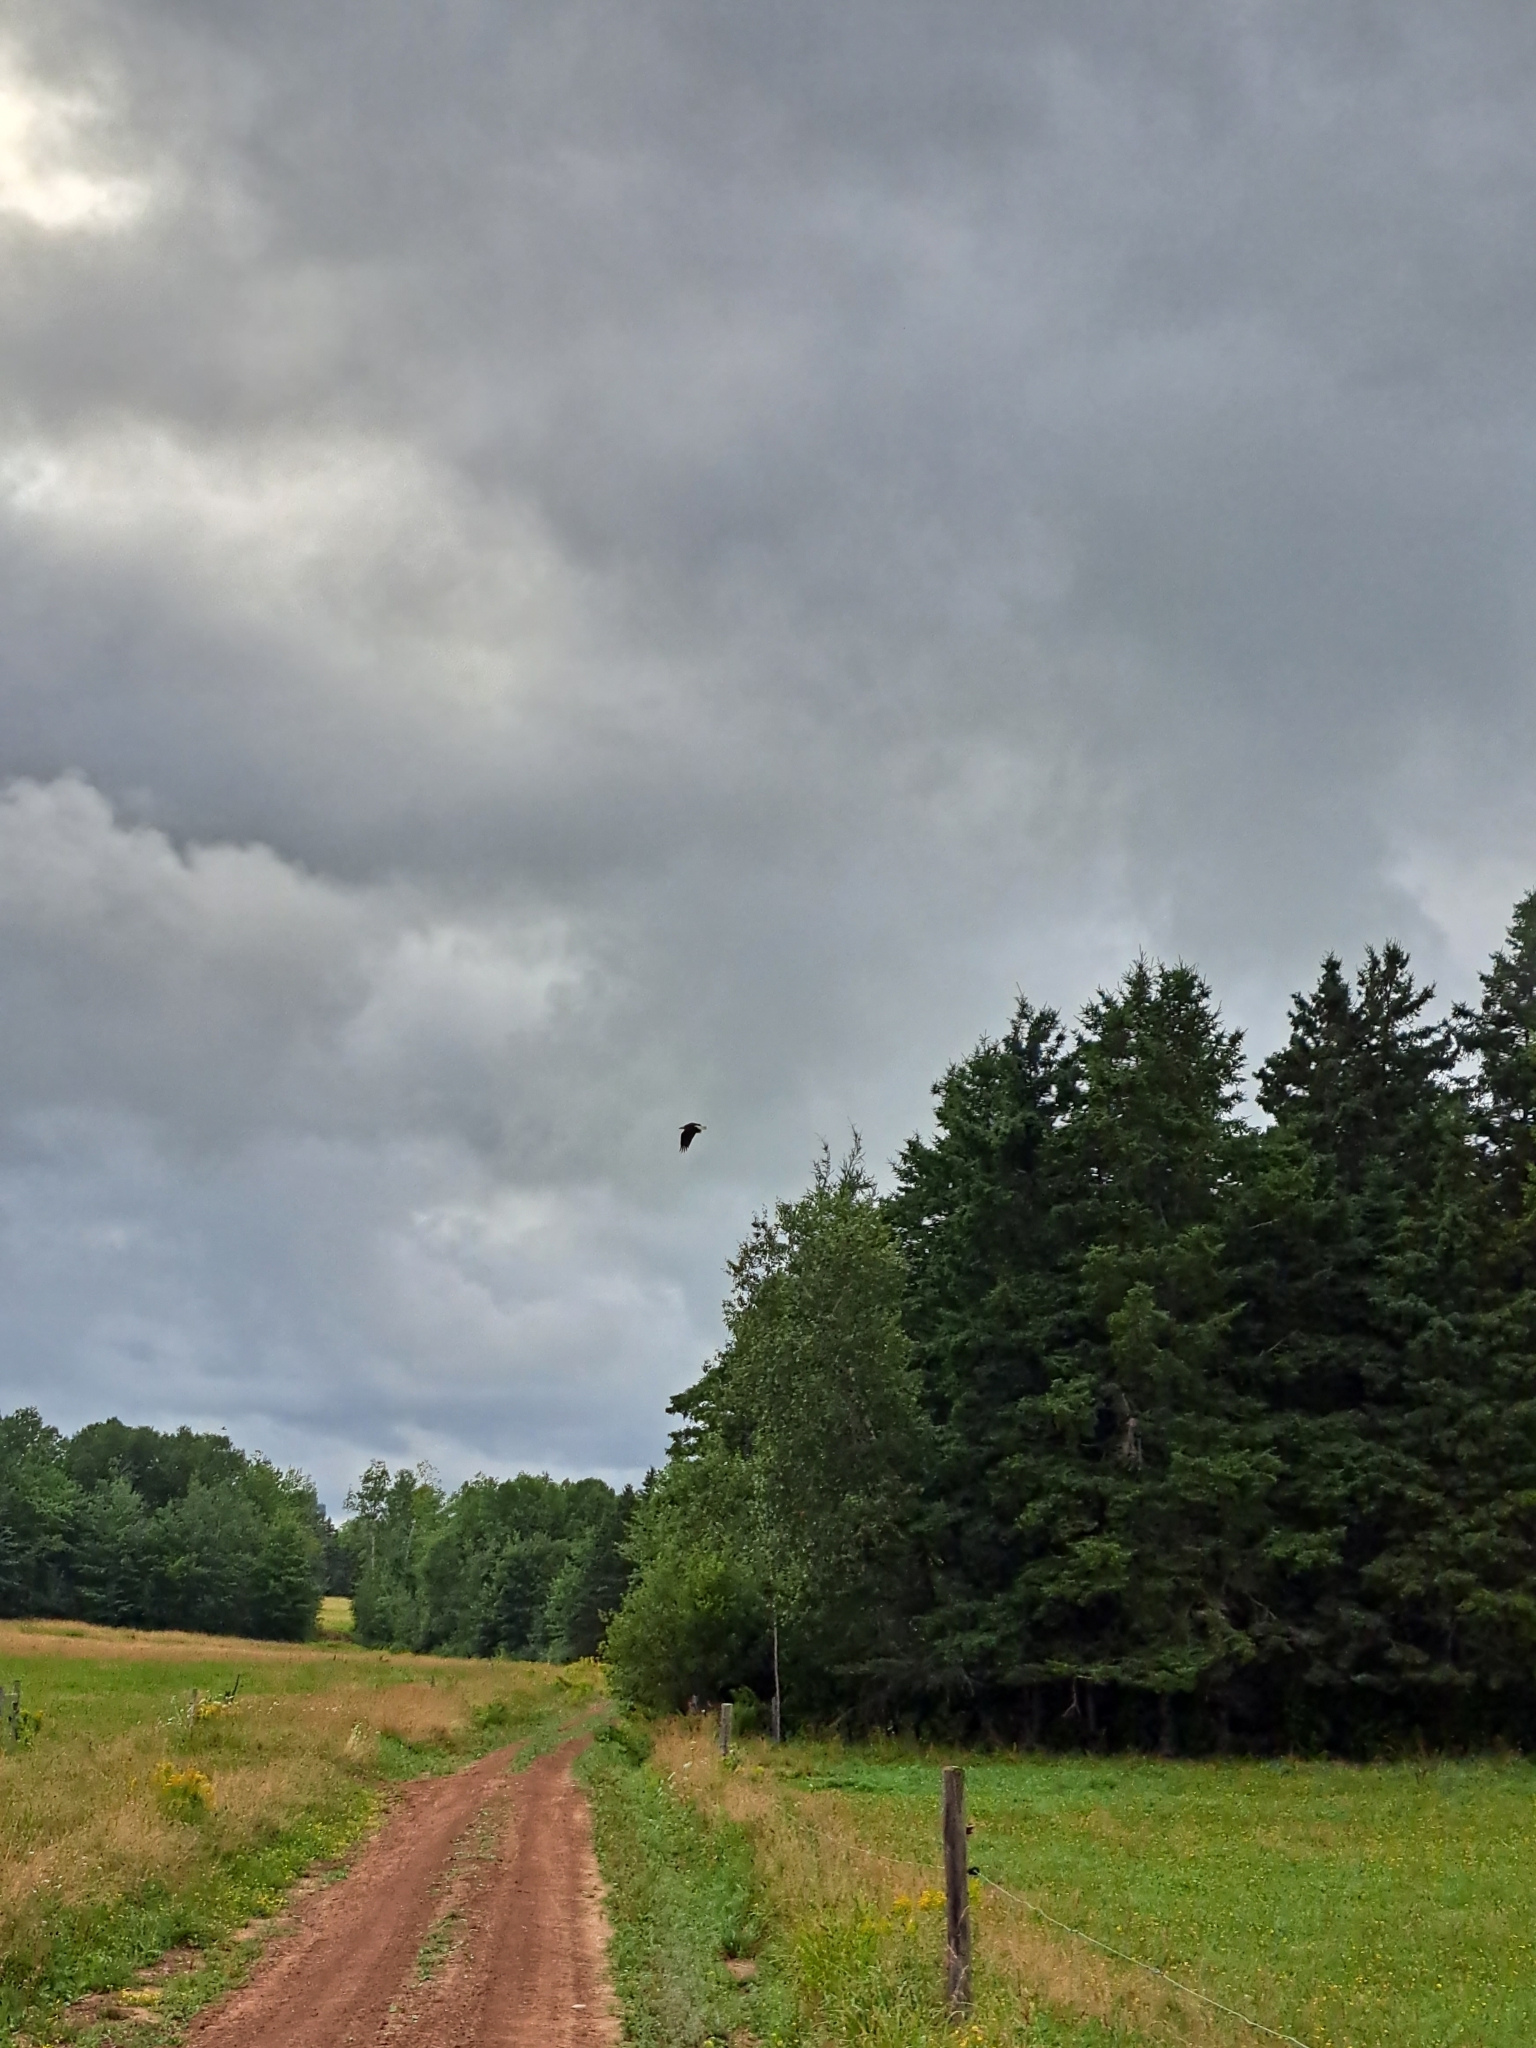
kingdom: Animalia
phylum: Chordata
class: Aves
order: Accipitriformes
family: Accipitridae
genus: Haliaeetus
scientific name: Haliaeetus leucocephalus
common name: Bald eagle
